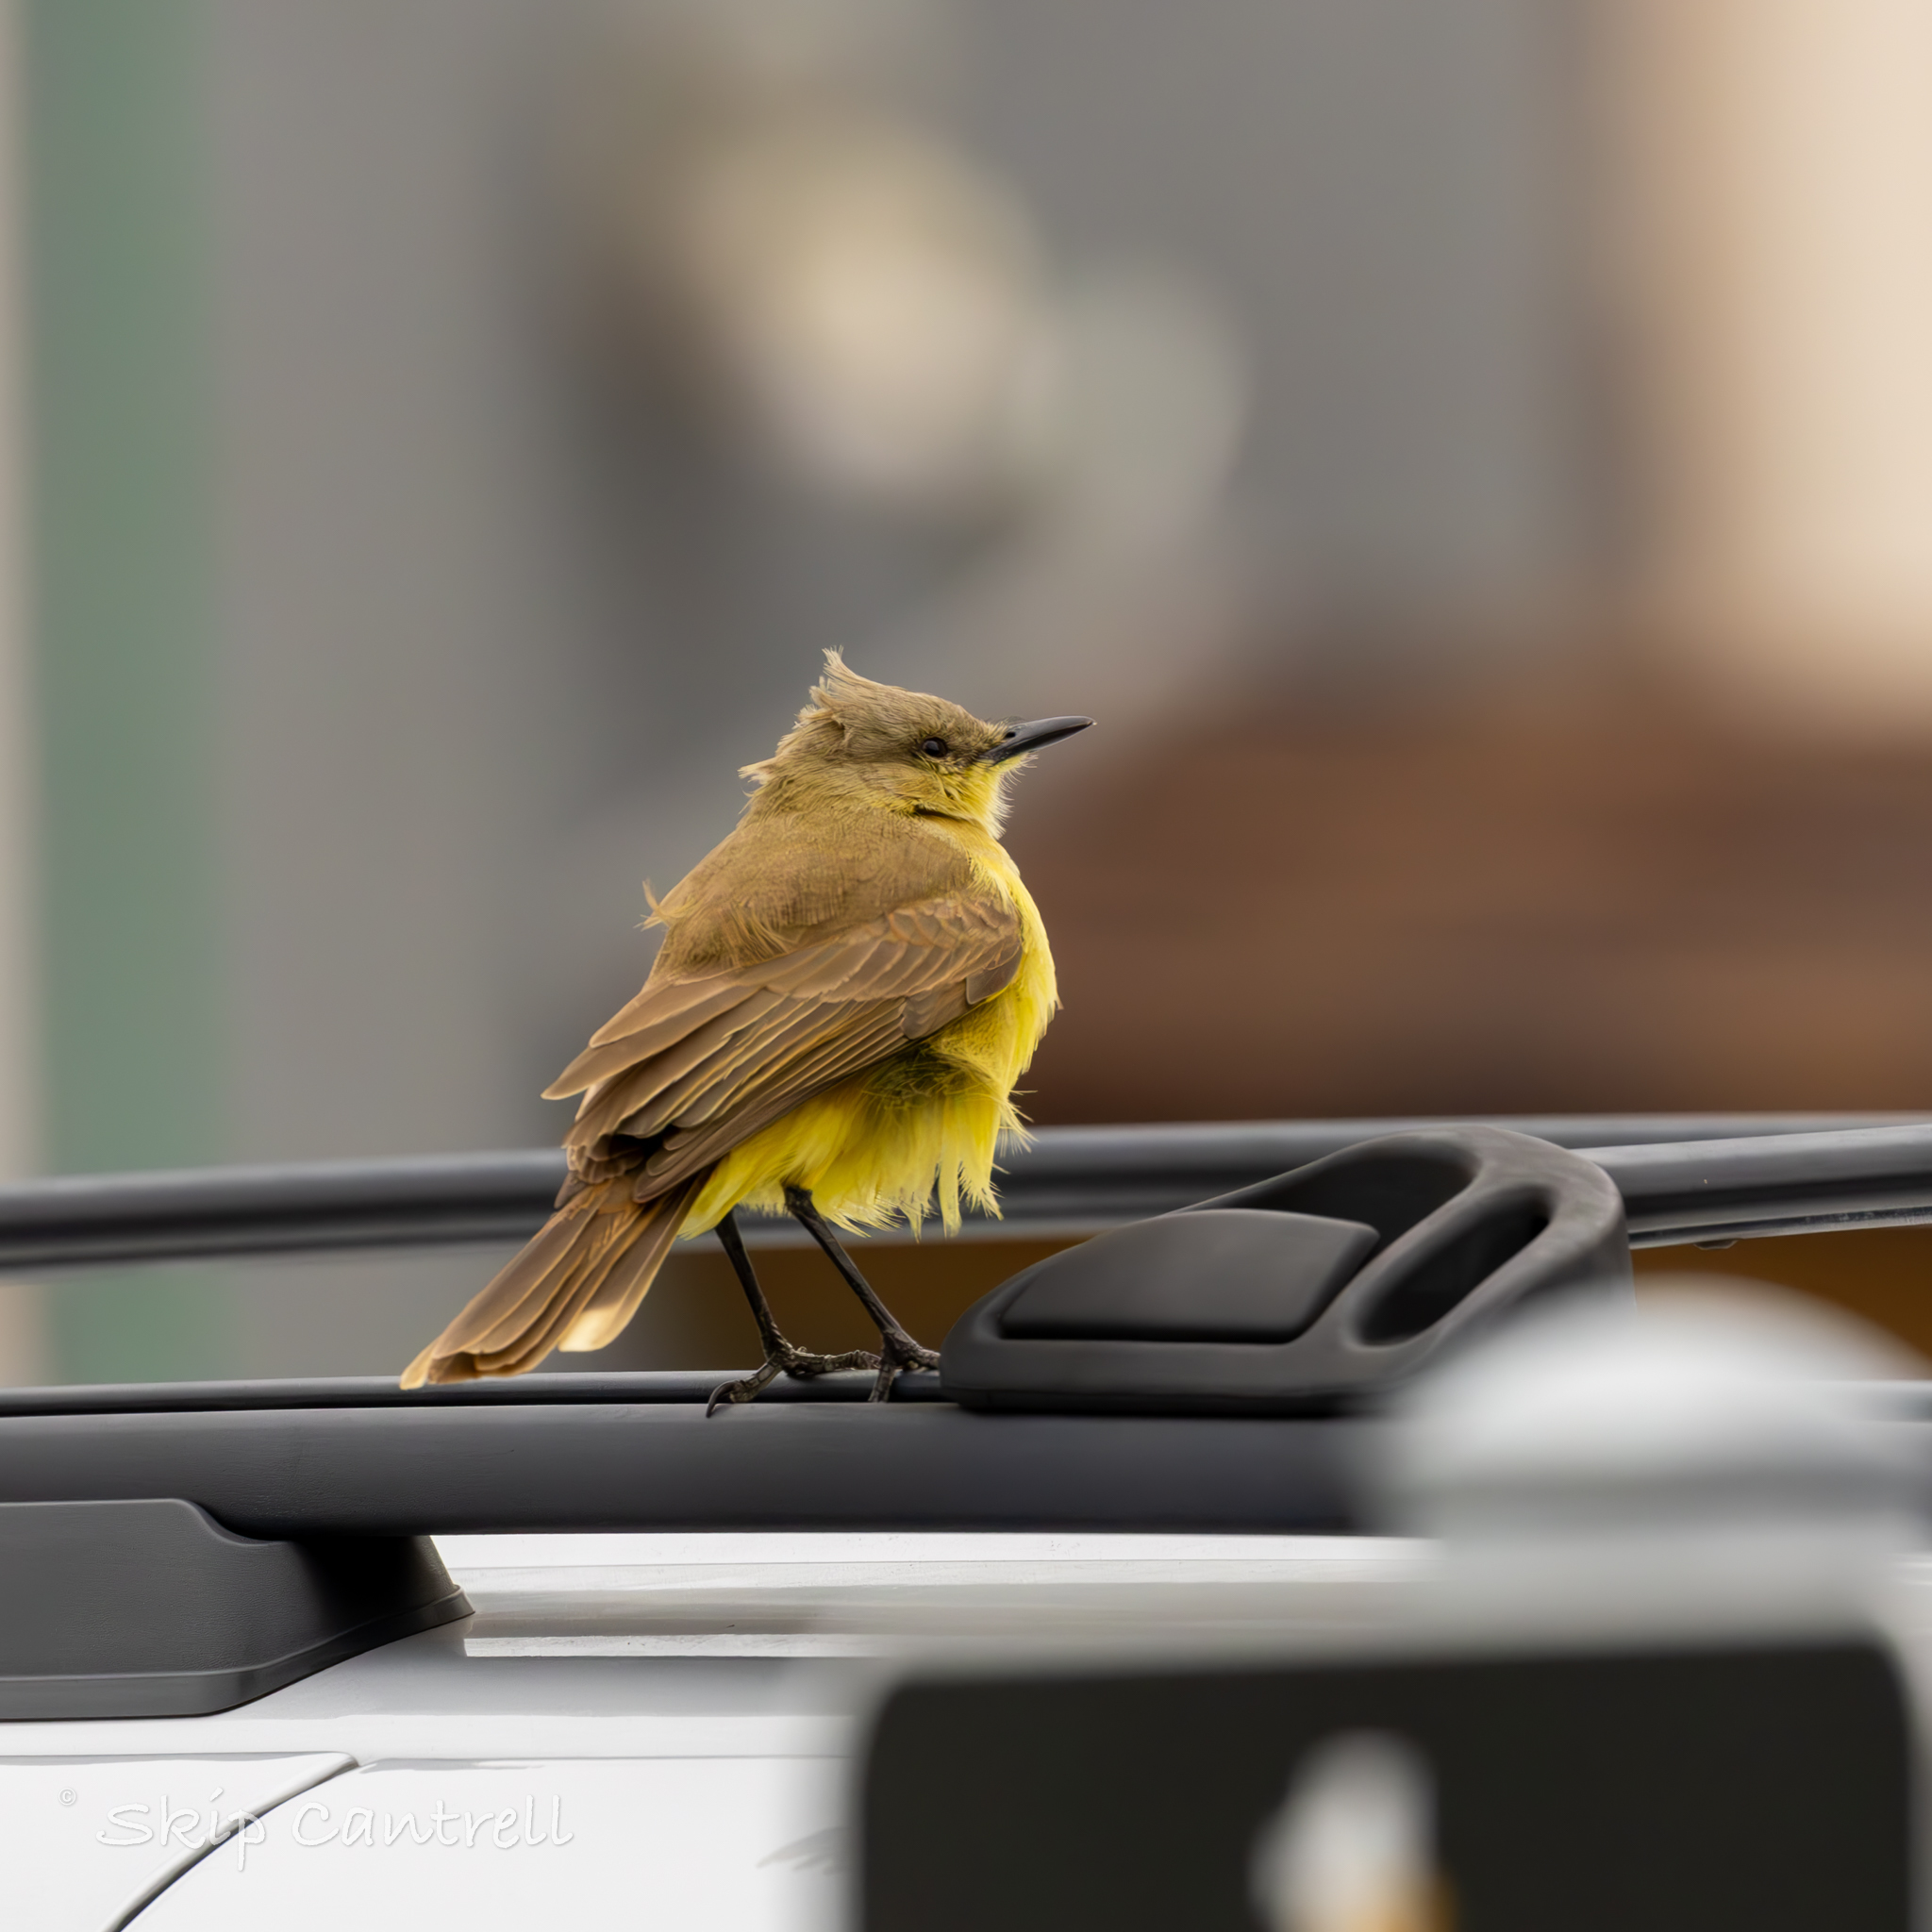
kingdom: Animalia
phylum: Chordata
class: Aves
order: Passeriformes
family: Tyrannidae
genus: Machetornis
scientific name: Machetornis rixosa
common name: Cattle tyrant
